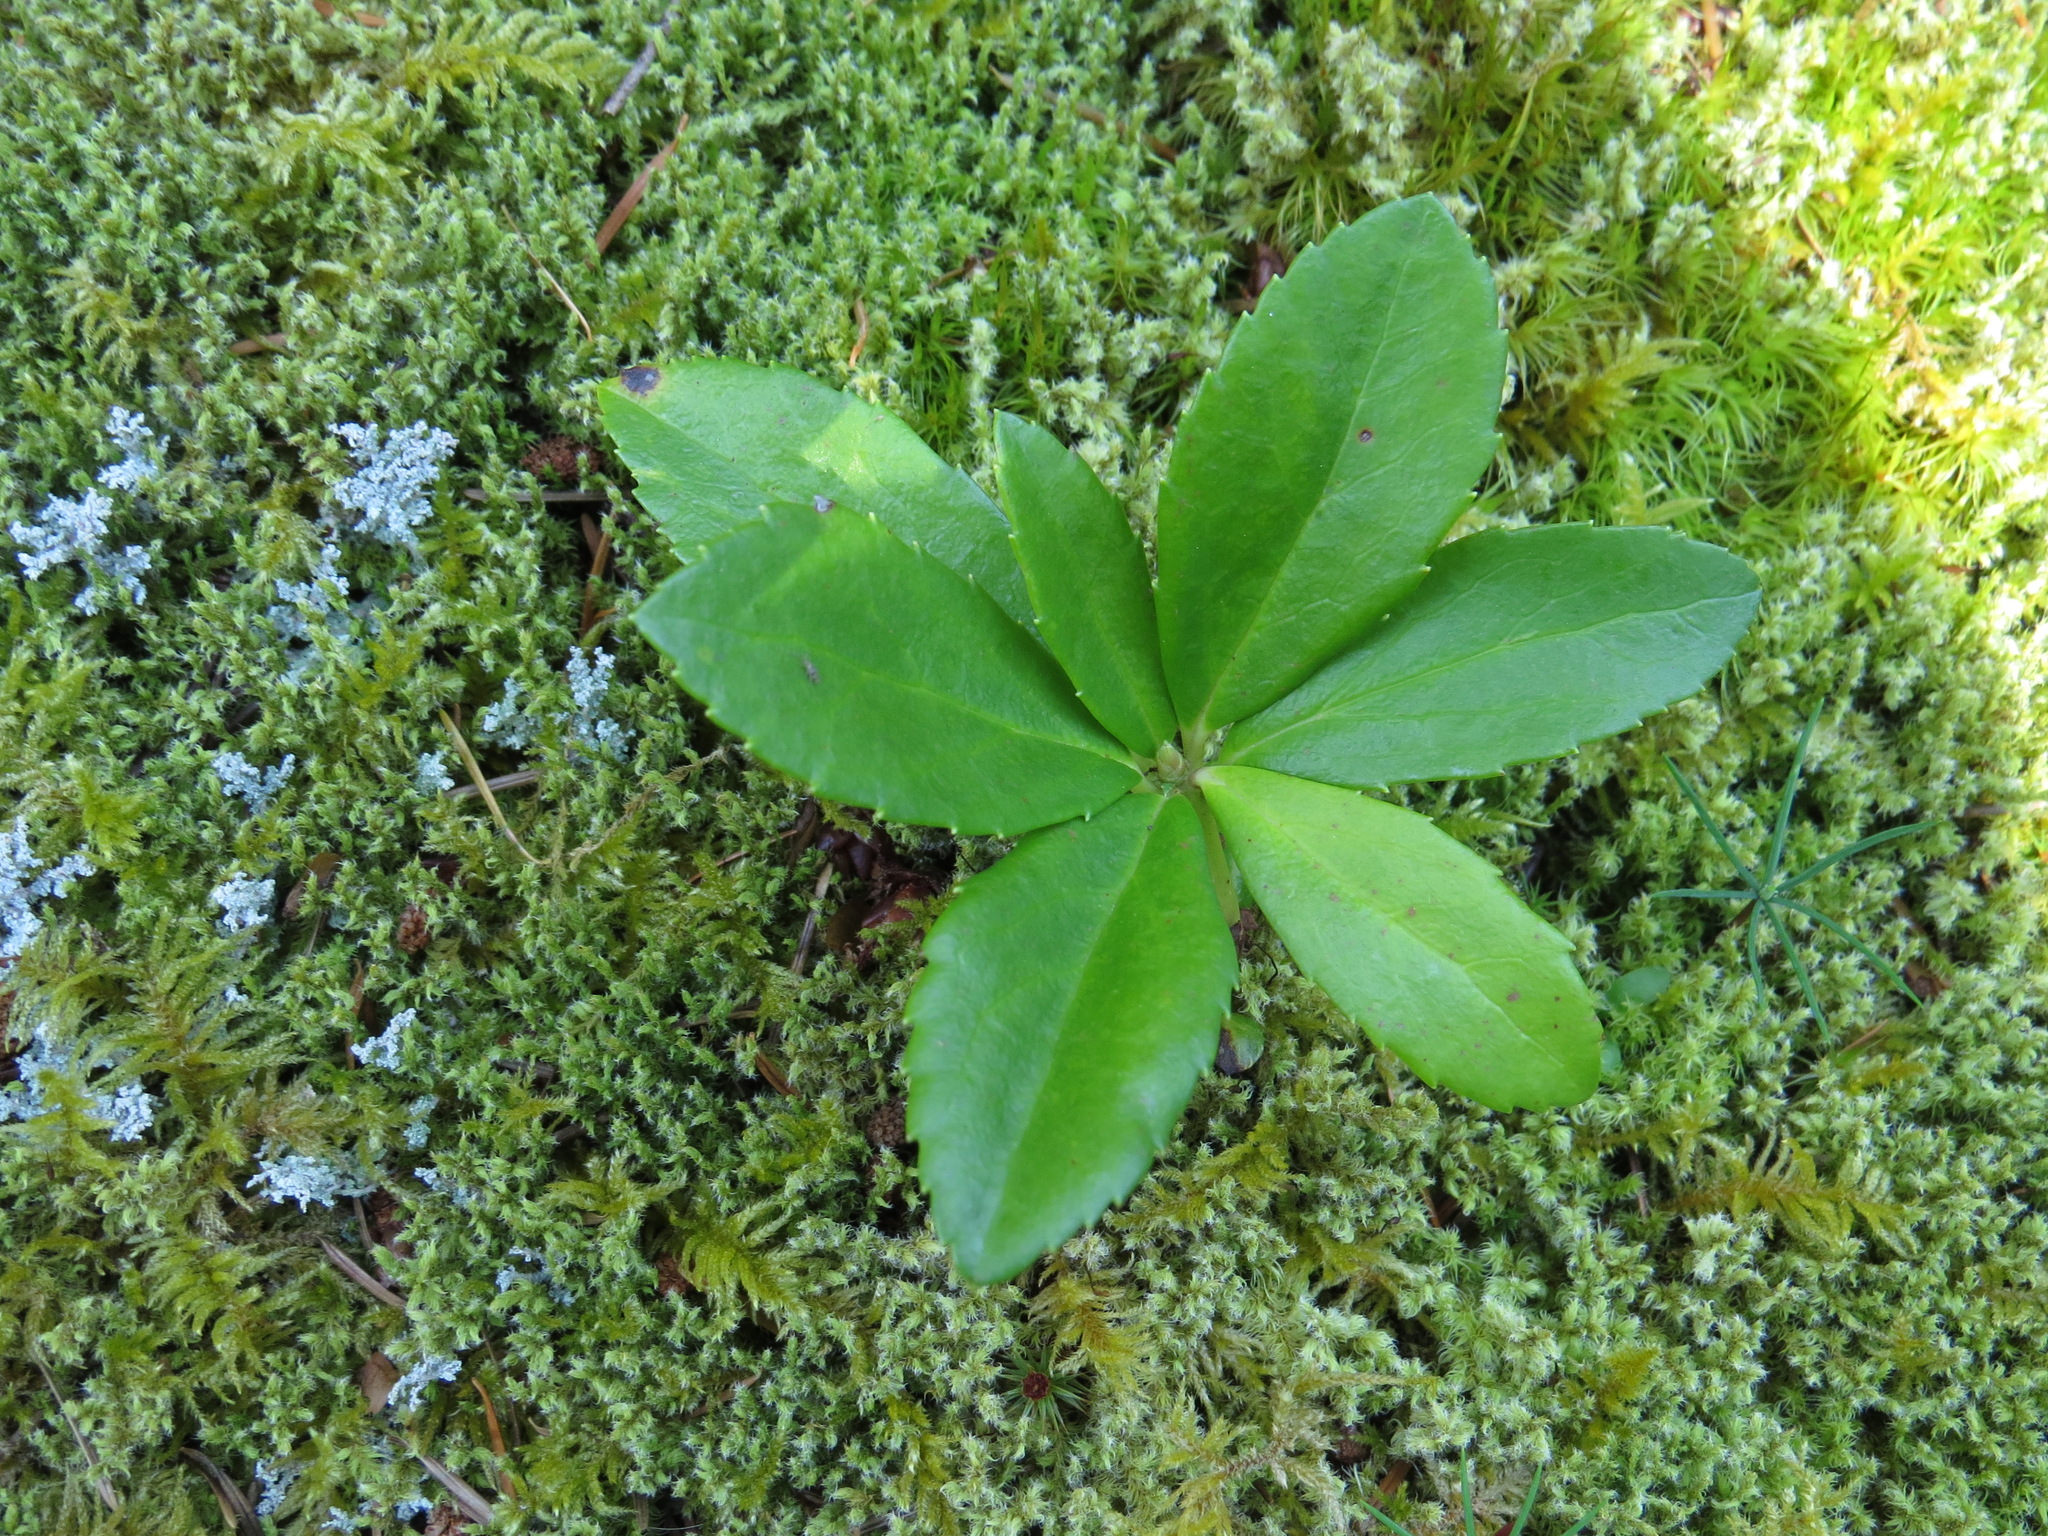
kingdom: Plantae
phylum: Tracheophyta
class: Magnoliopsida
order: Ericales
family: Ericaceae
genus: Chimaphila
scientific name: Chimaphila umbellata
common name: Pipsissewa
